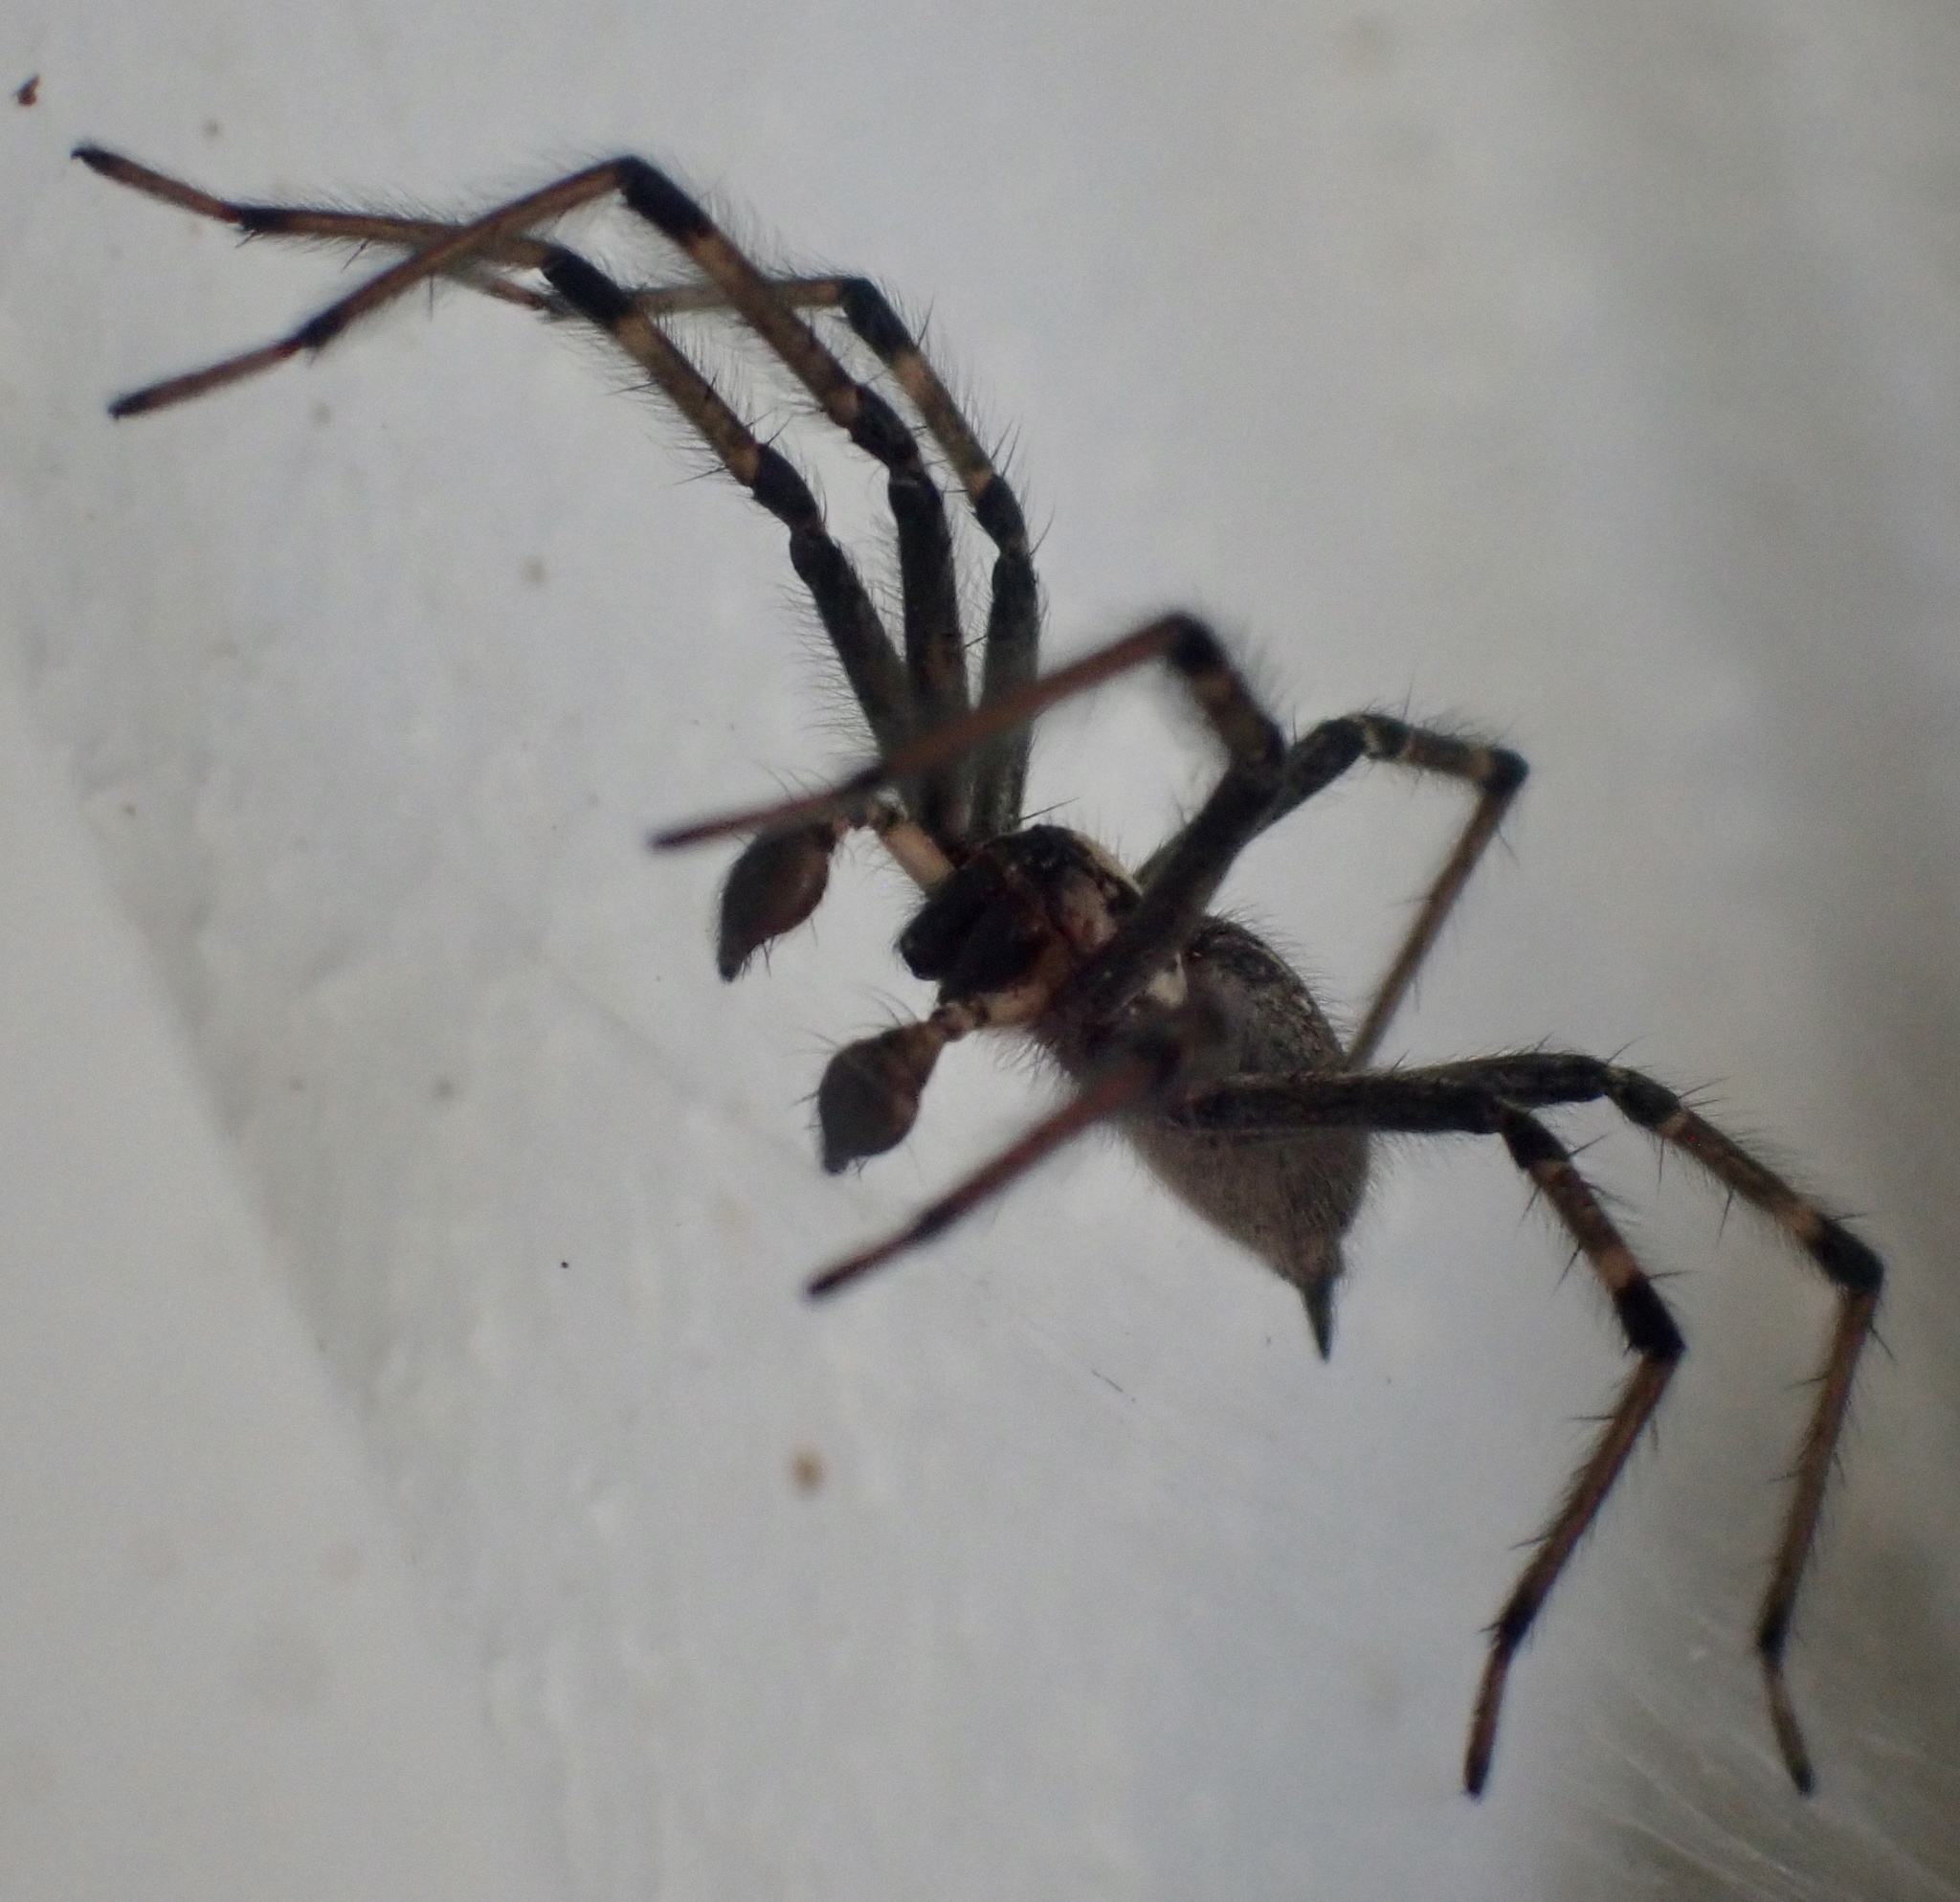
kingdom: Animalia
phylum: Arthropoda
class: Arachnida
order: Araneae
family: Agelenidae
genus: Agelenopsis
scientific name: Agelenopsis
